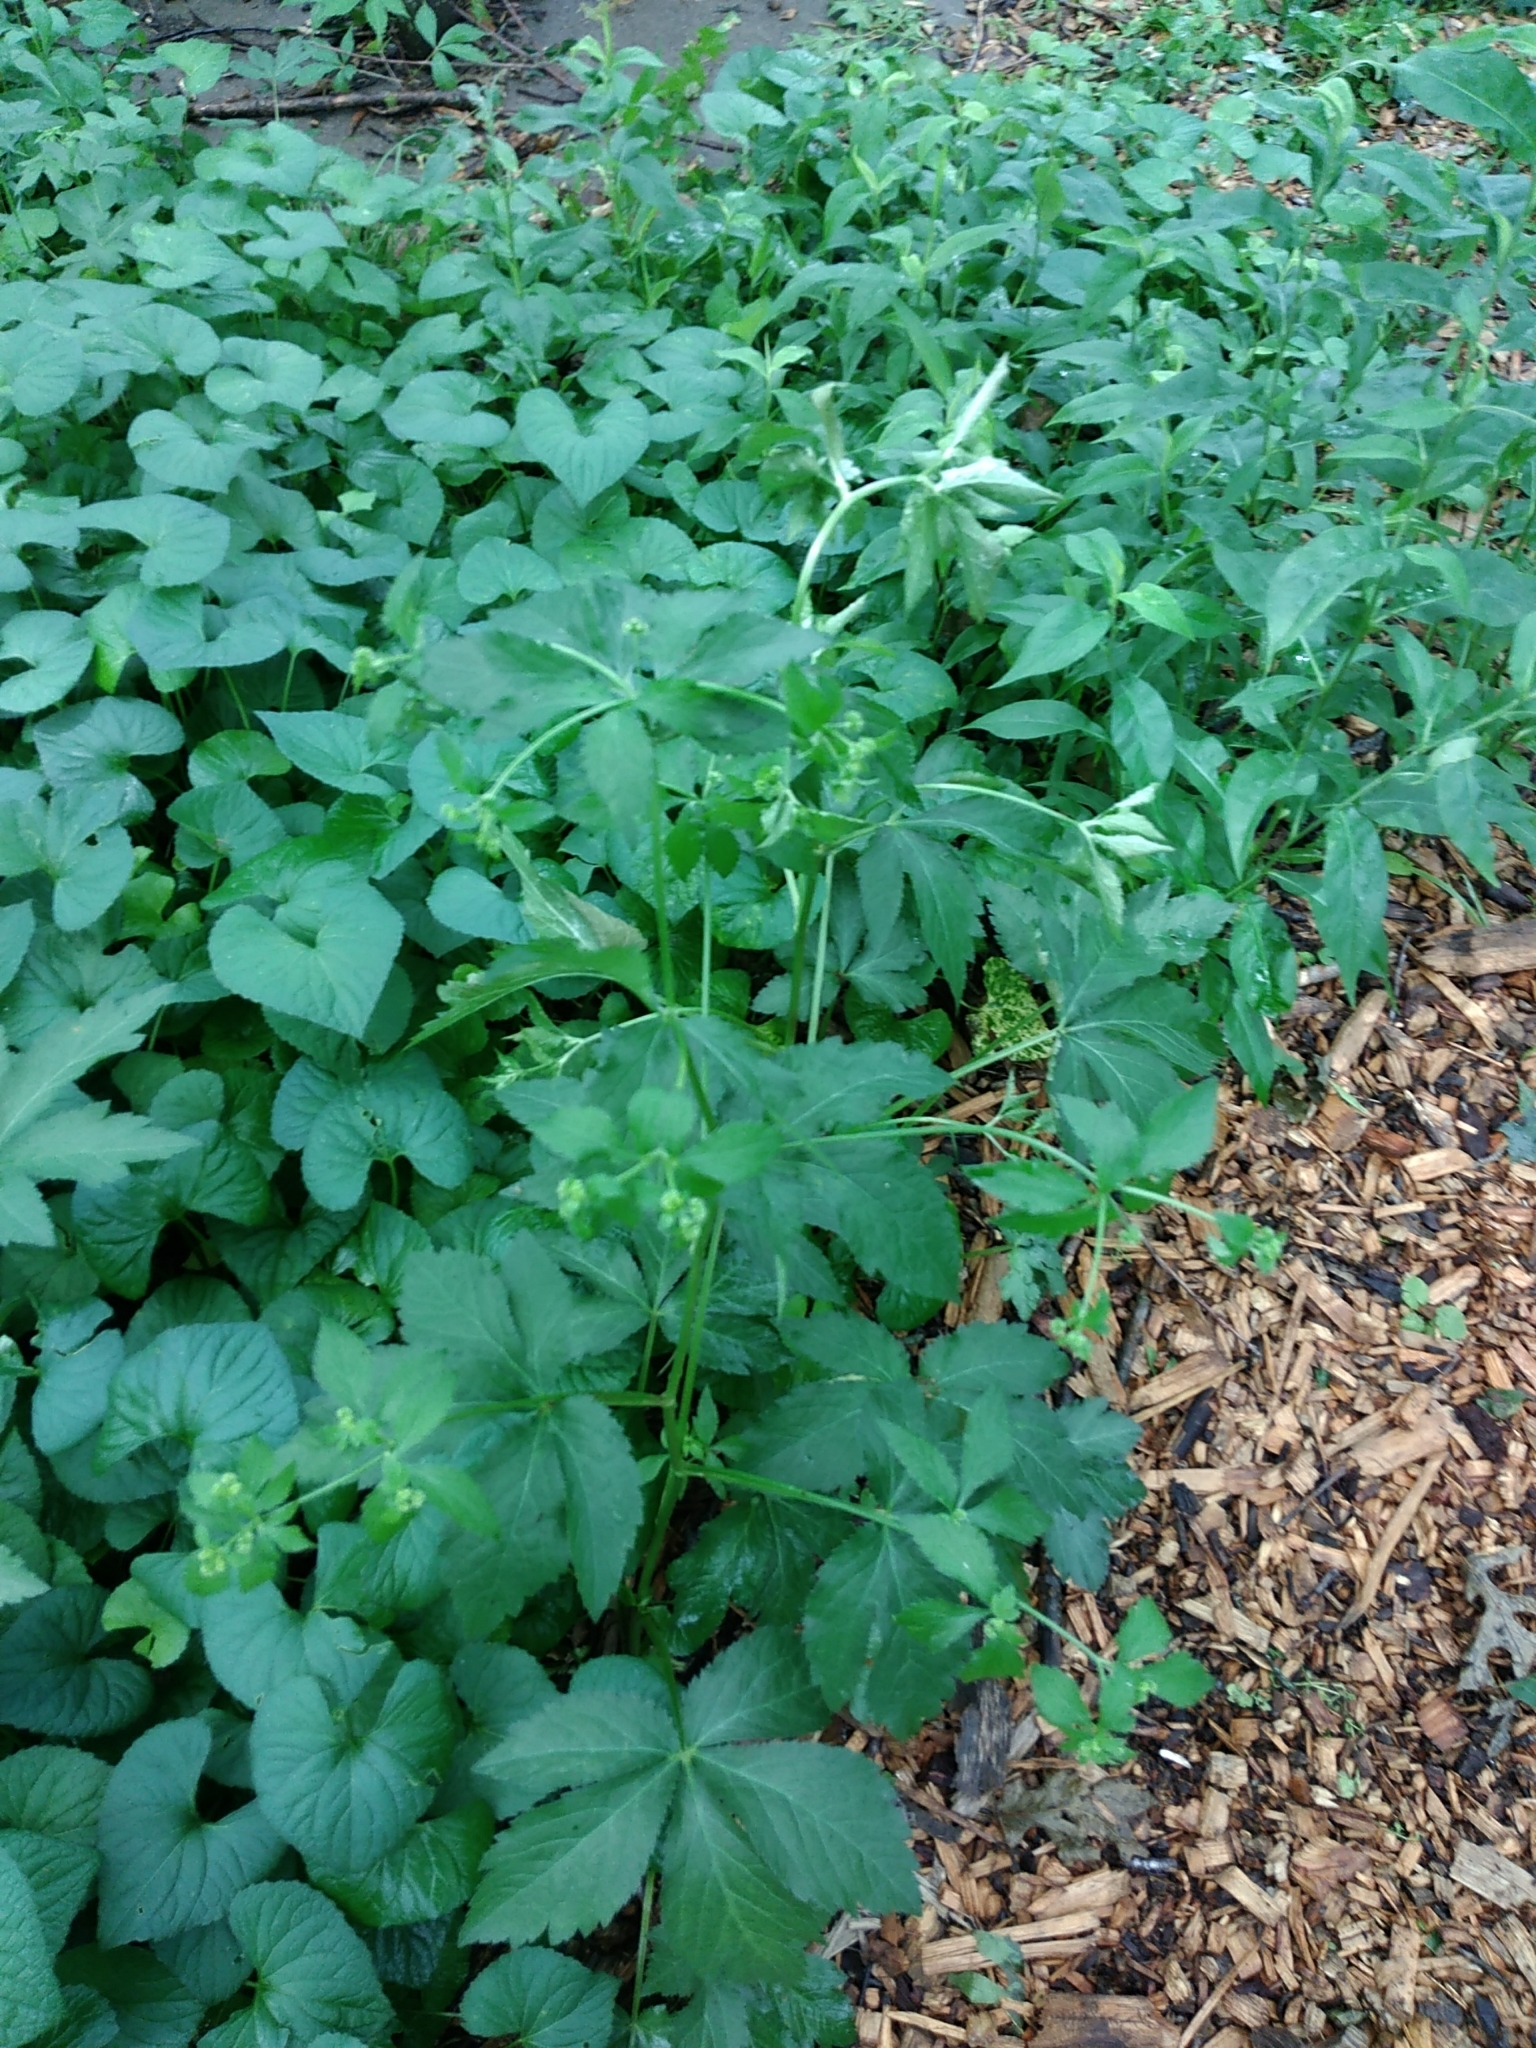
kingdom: Plantae
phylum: Tracheophyta
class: Magnoliopsida
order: Apiales
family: Apiaceae
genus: Sanicula
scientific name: Sanicula canadensis
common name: Canada sanicle
